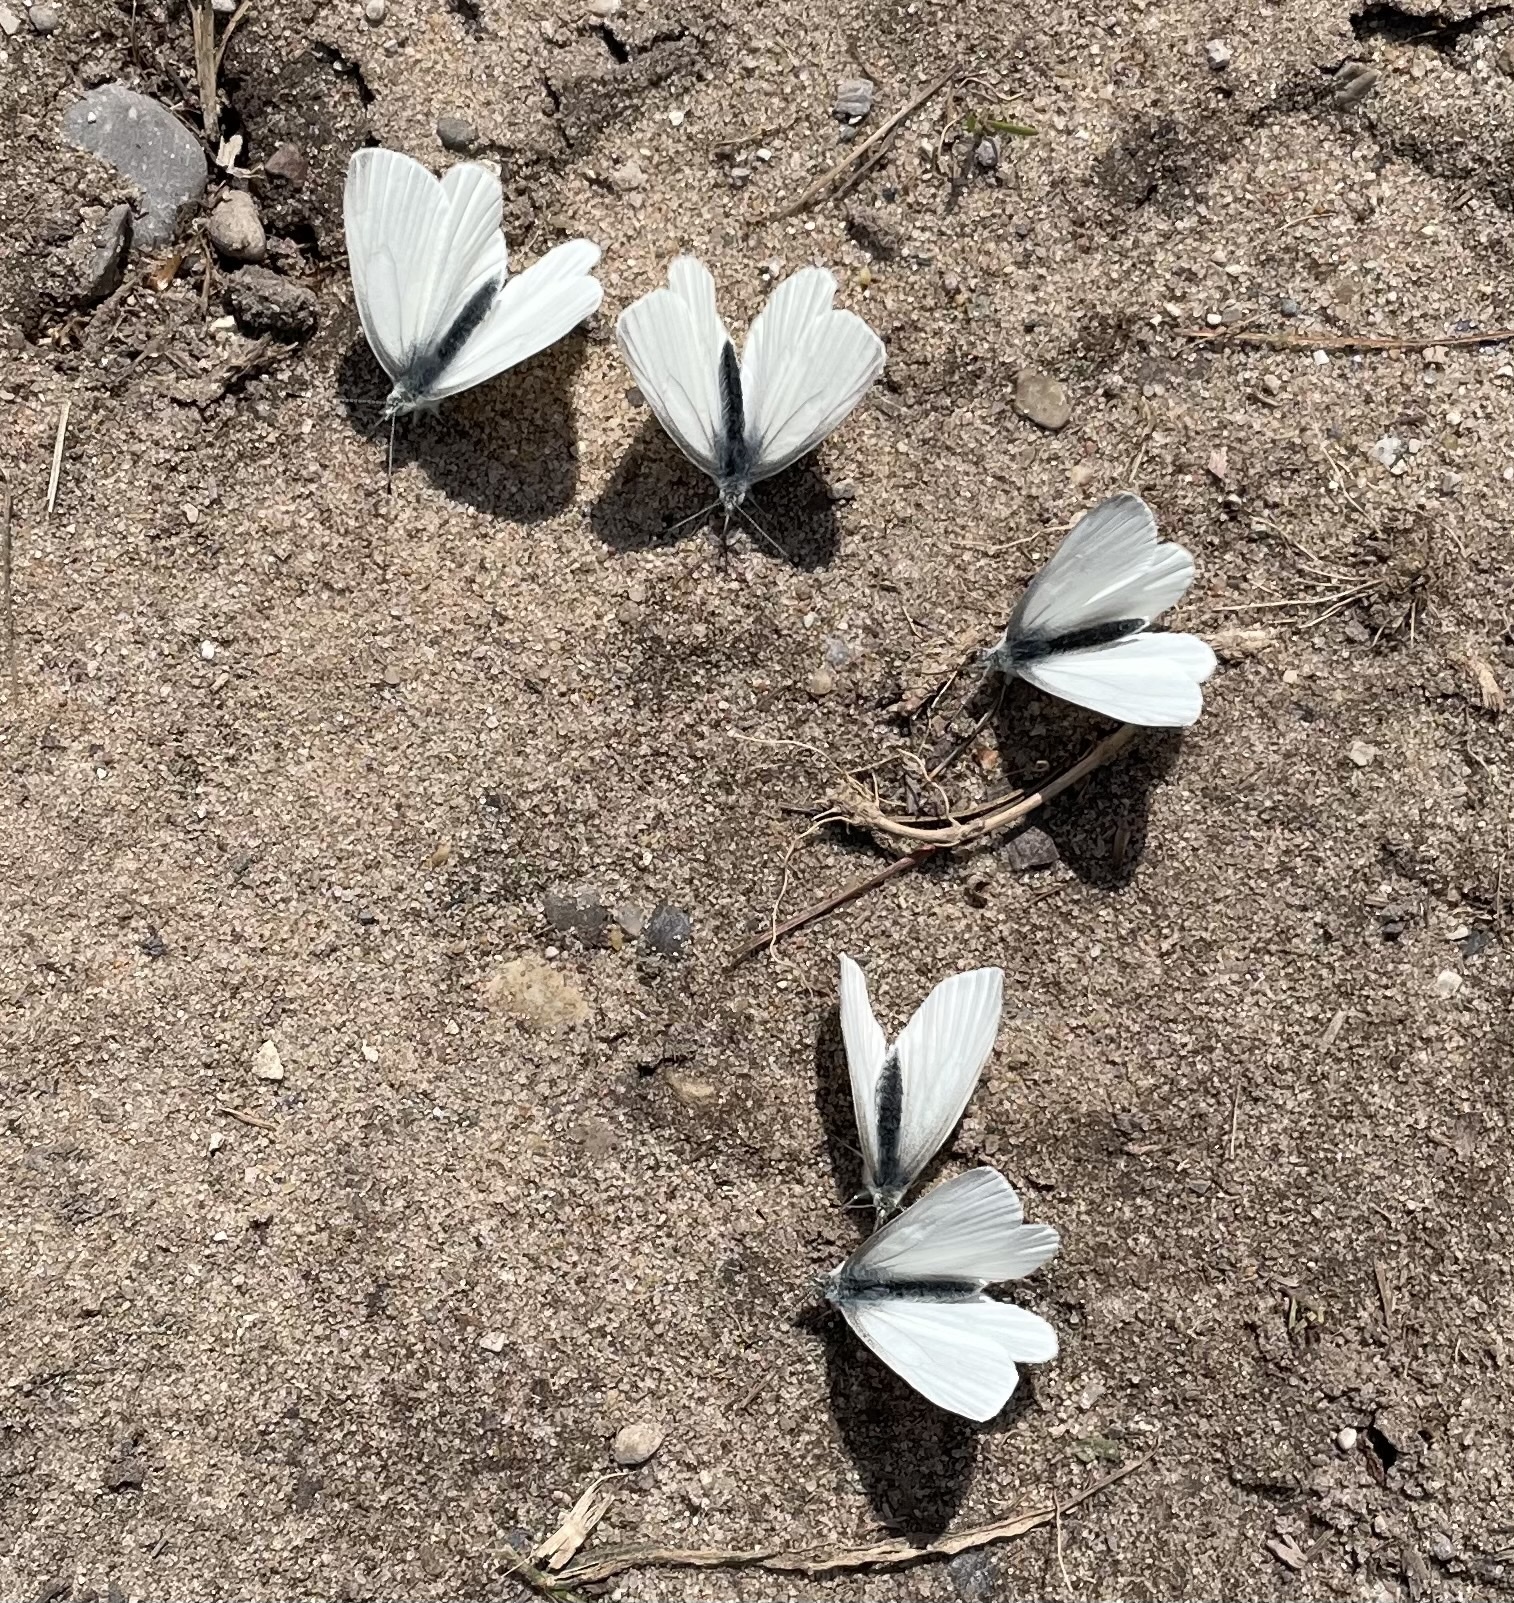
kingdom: Animalia
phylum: Arthropoda
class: Insecta
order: Lepidoptera
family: Pieridae
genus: Pieris
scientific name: Pieris virginiensis
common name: West virginia white
